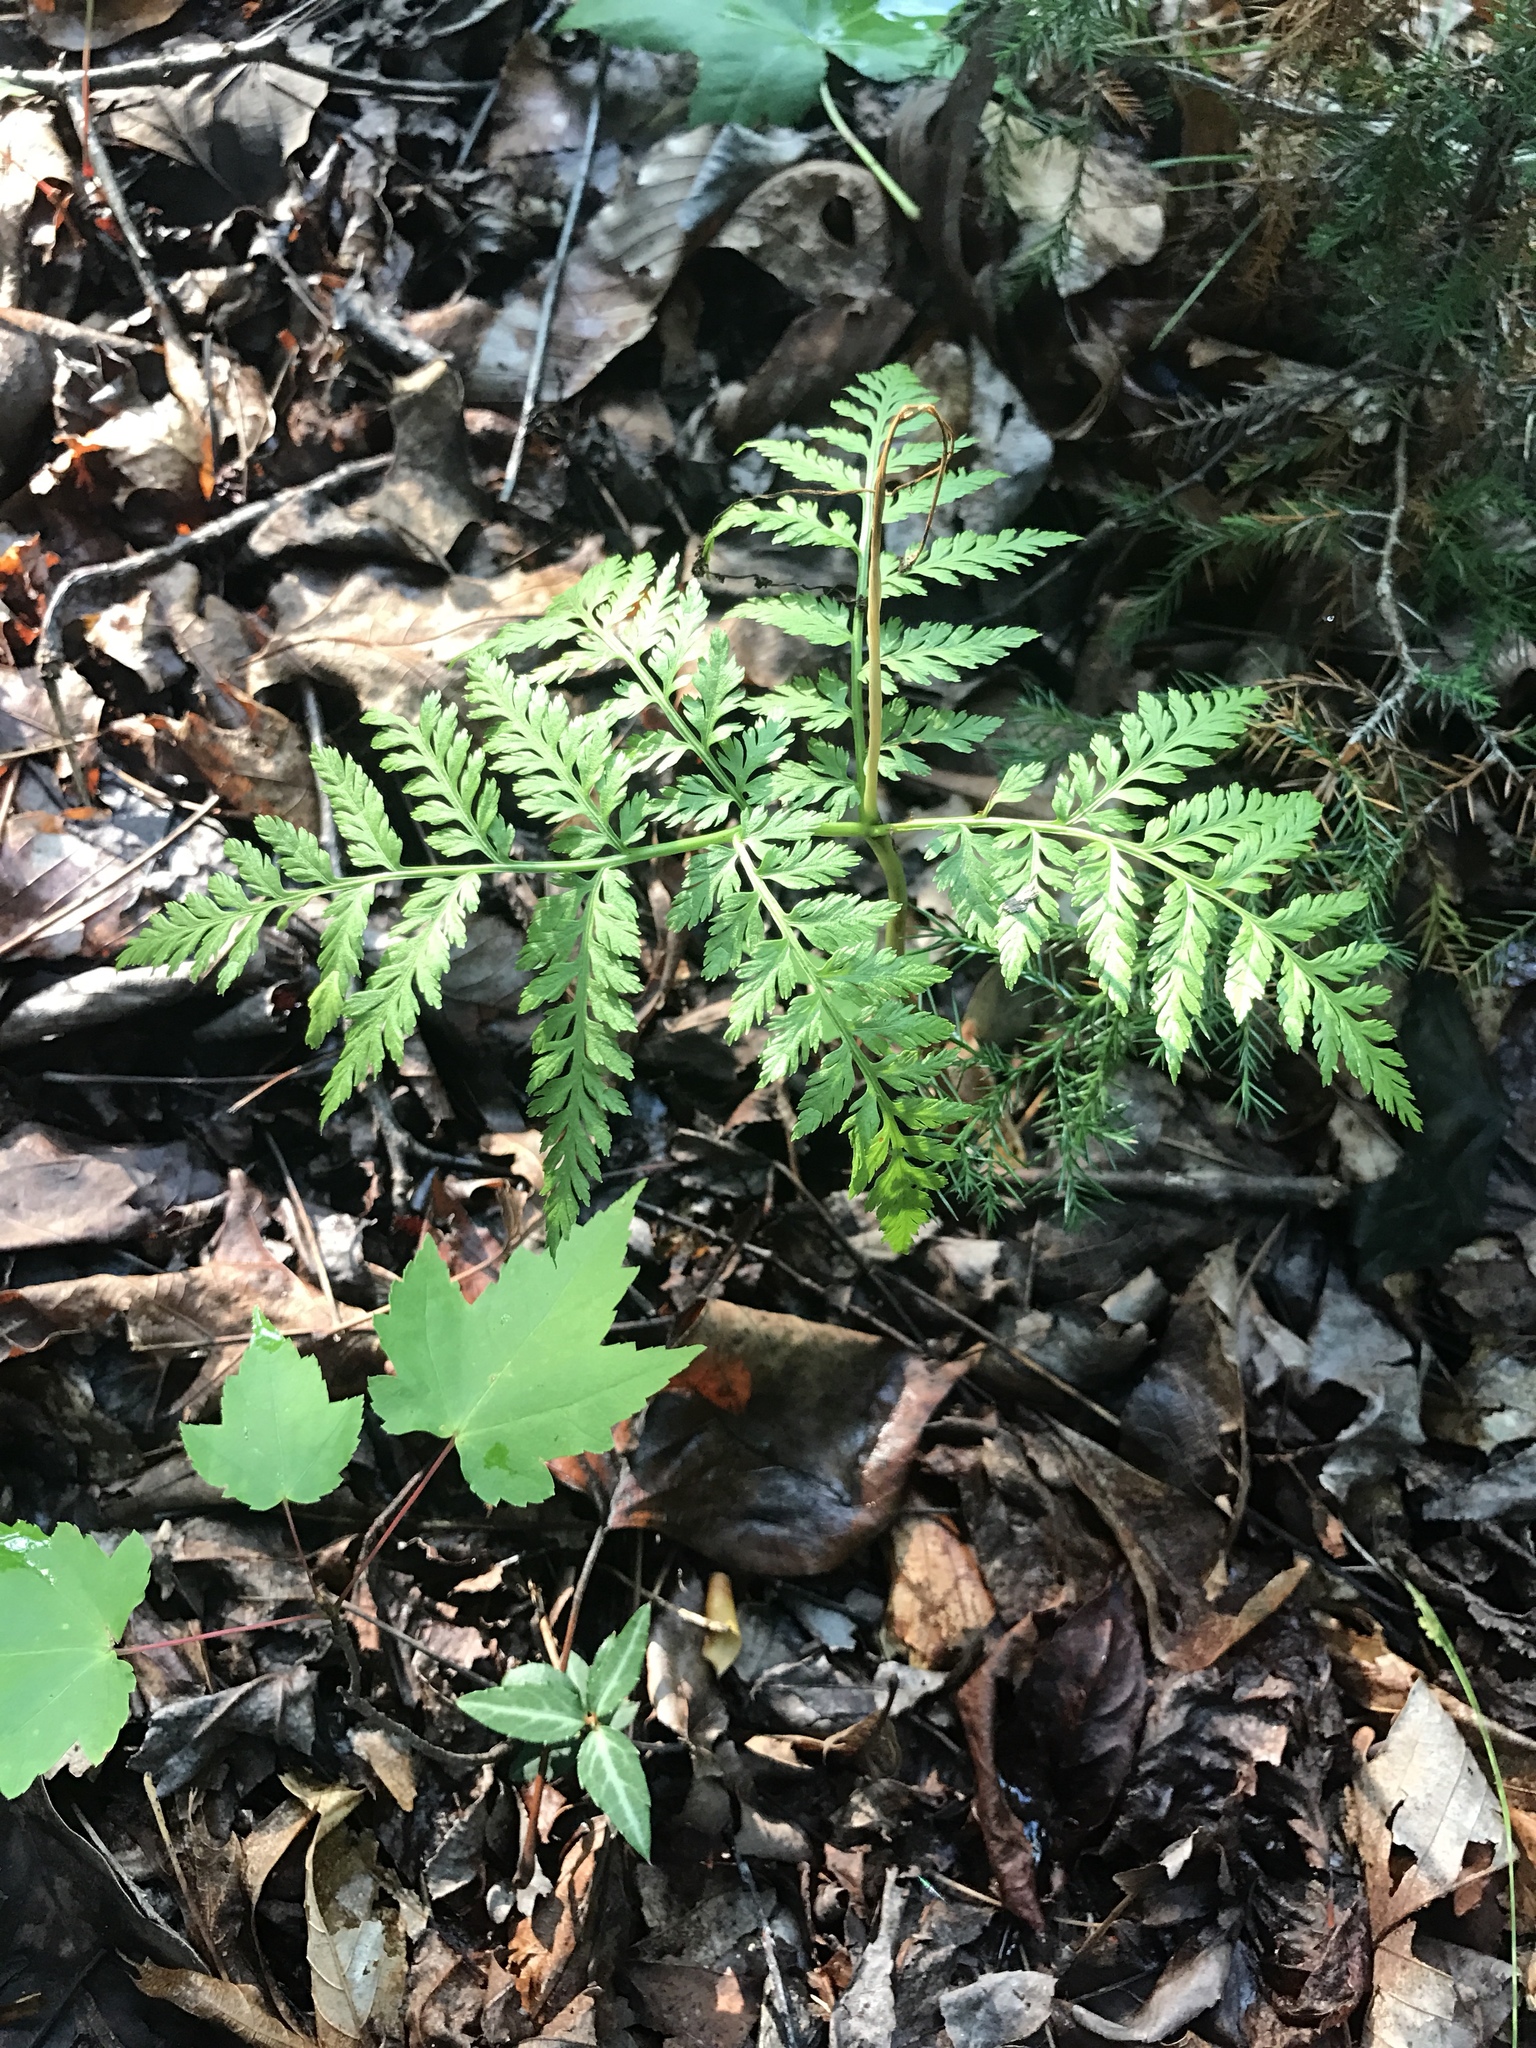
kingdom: Plantae
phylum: Tracheophyta
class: Polypodiopsida
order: Ophioglossales
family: Ophioglossaceae
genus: Botrypus
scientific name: Botrypus virginianus
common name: Common grapefern
